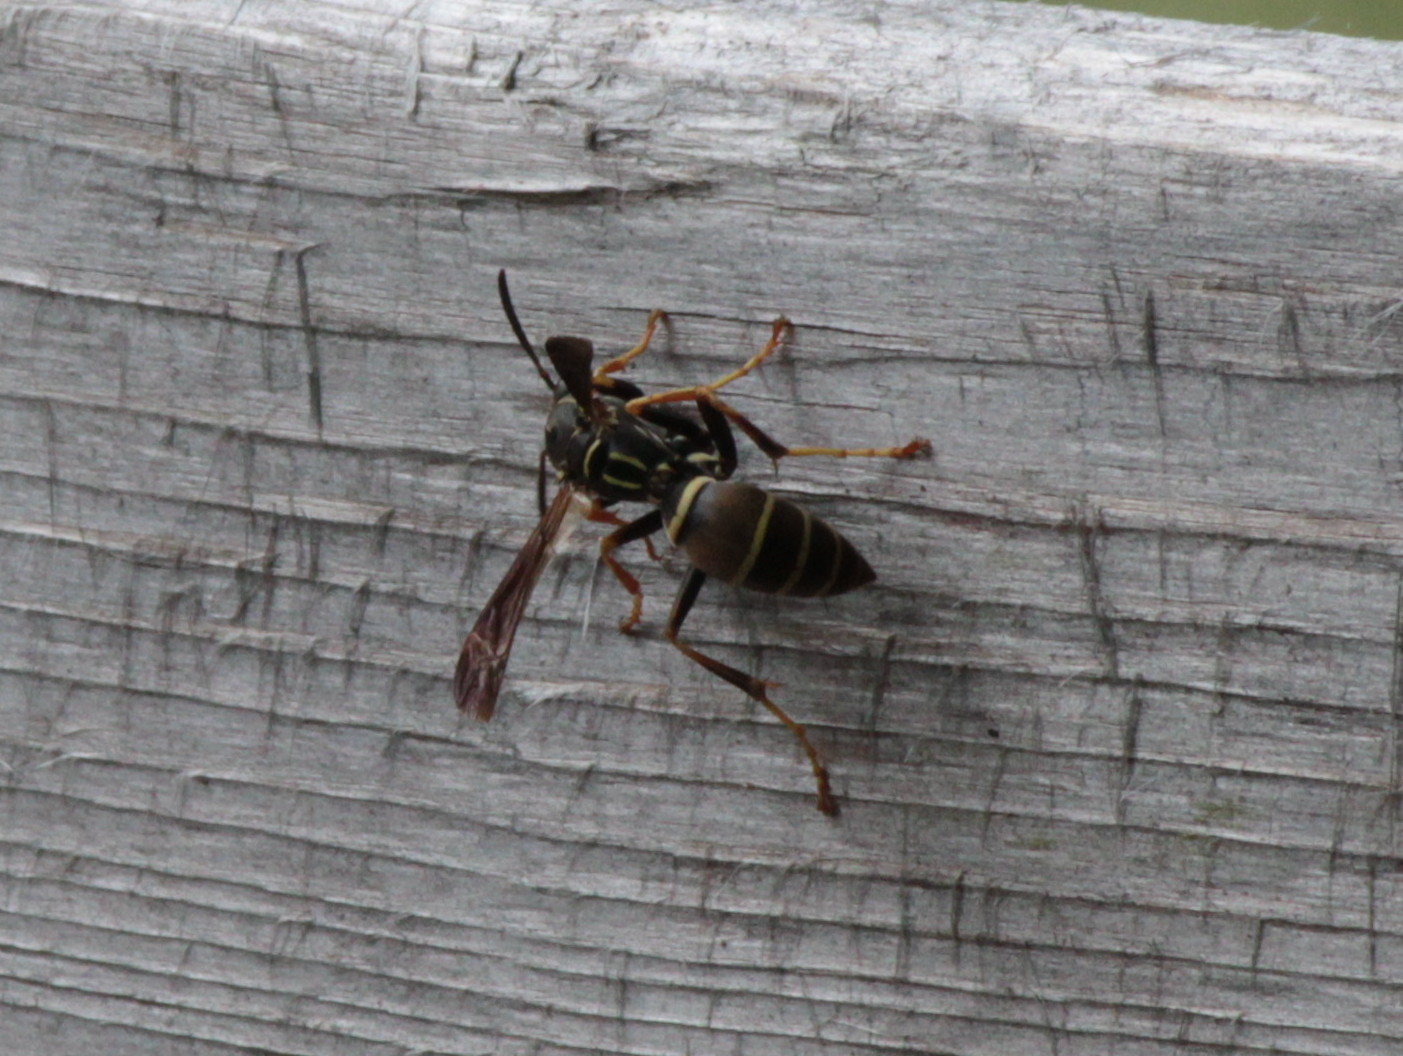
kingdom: Animalia
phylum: Arthropoda
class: Insecta
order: Hymenoptera
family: Eumenidae
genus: Polistes
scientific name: Polistes fuscatus
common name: Dark paper wasp
